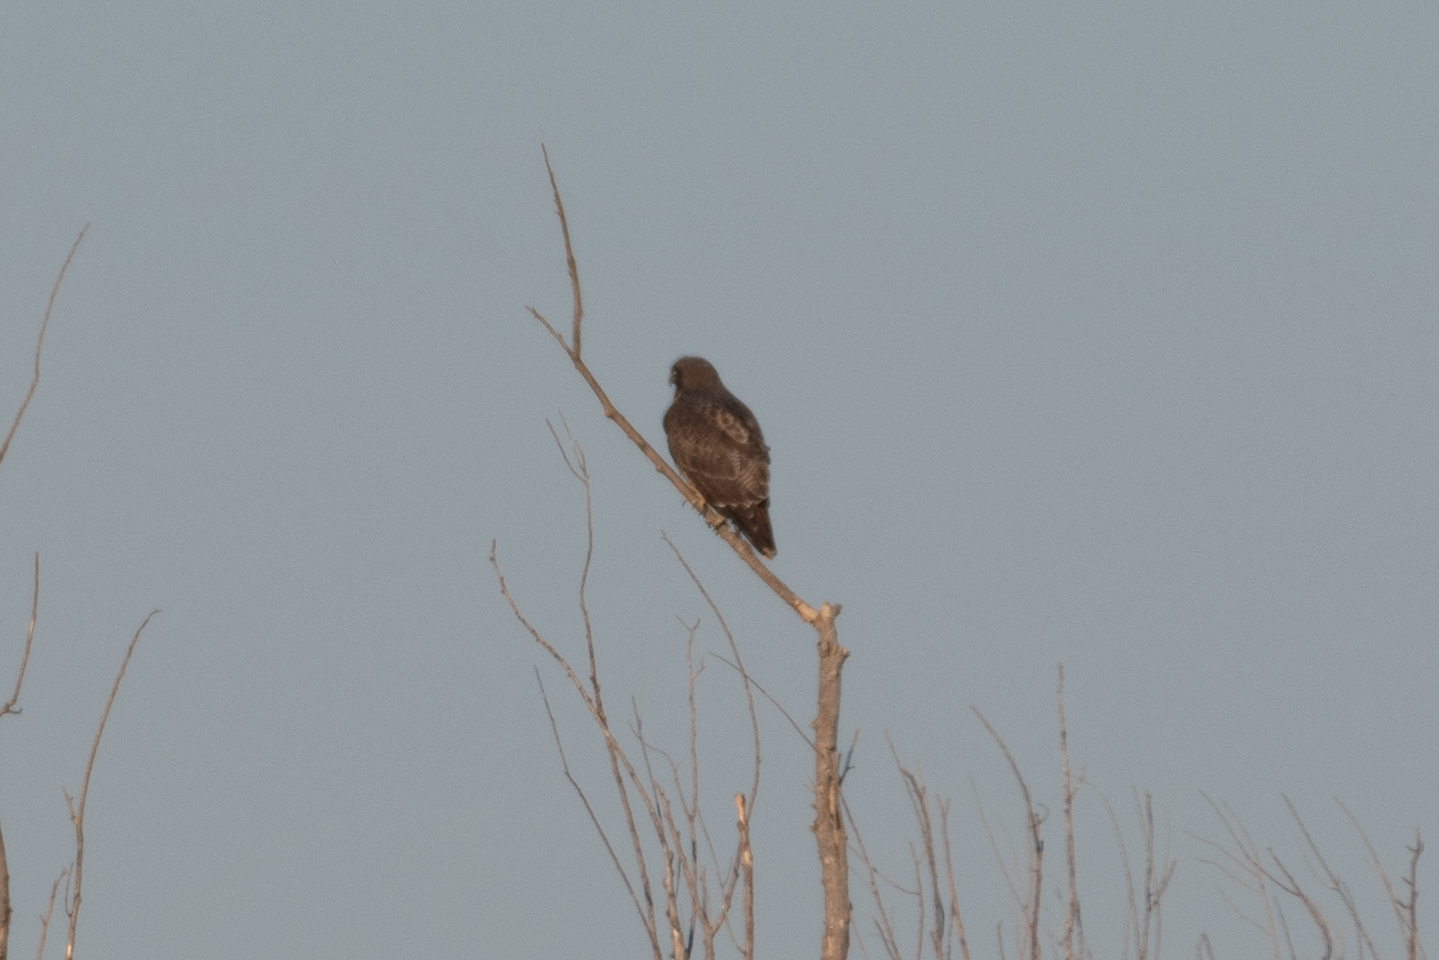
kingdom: Animalia
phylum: Chordata
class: Aves
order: Accipitriformes
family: Accipitridae
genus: Buteo
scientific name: Buteo jamaicensis
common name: Red-tailed hawk
